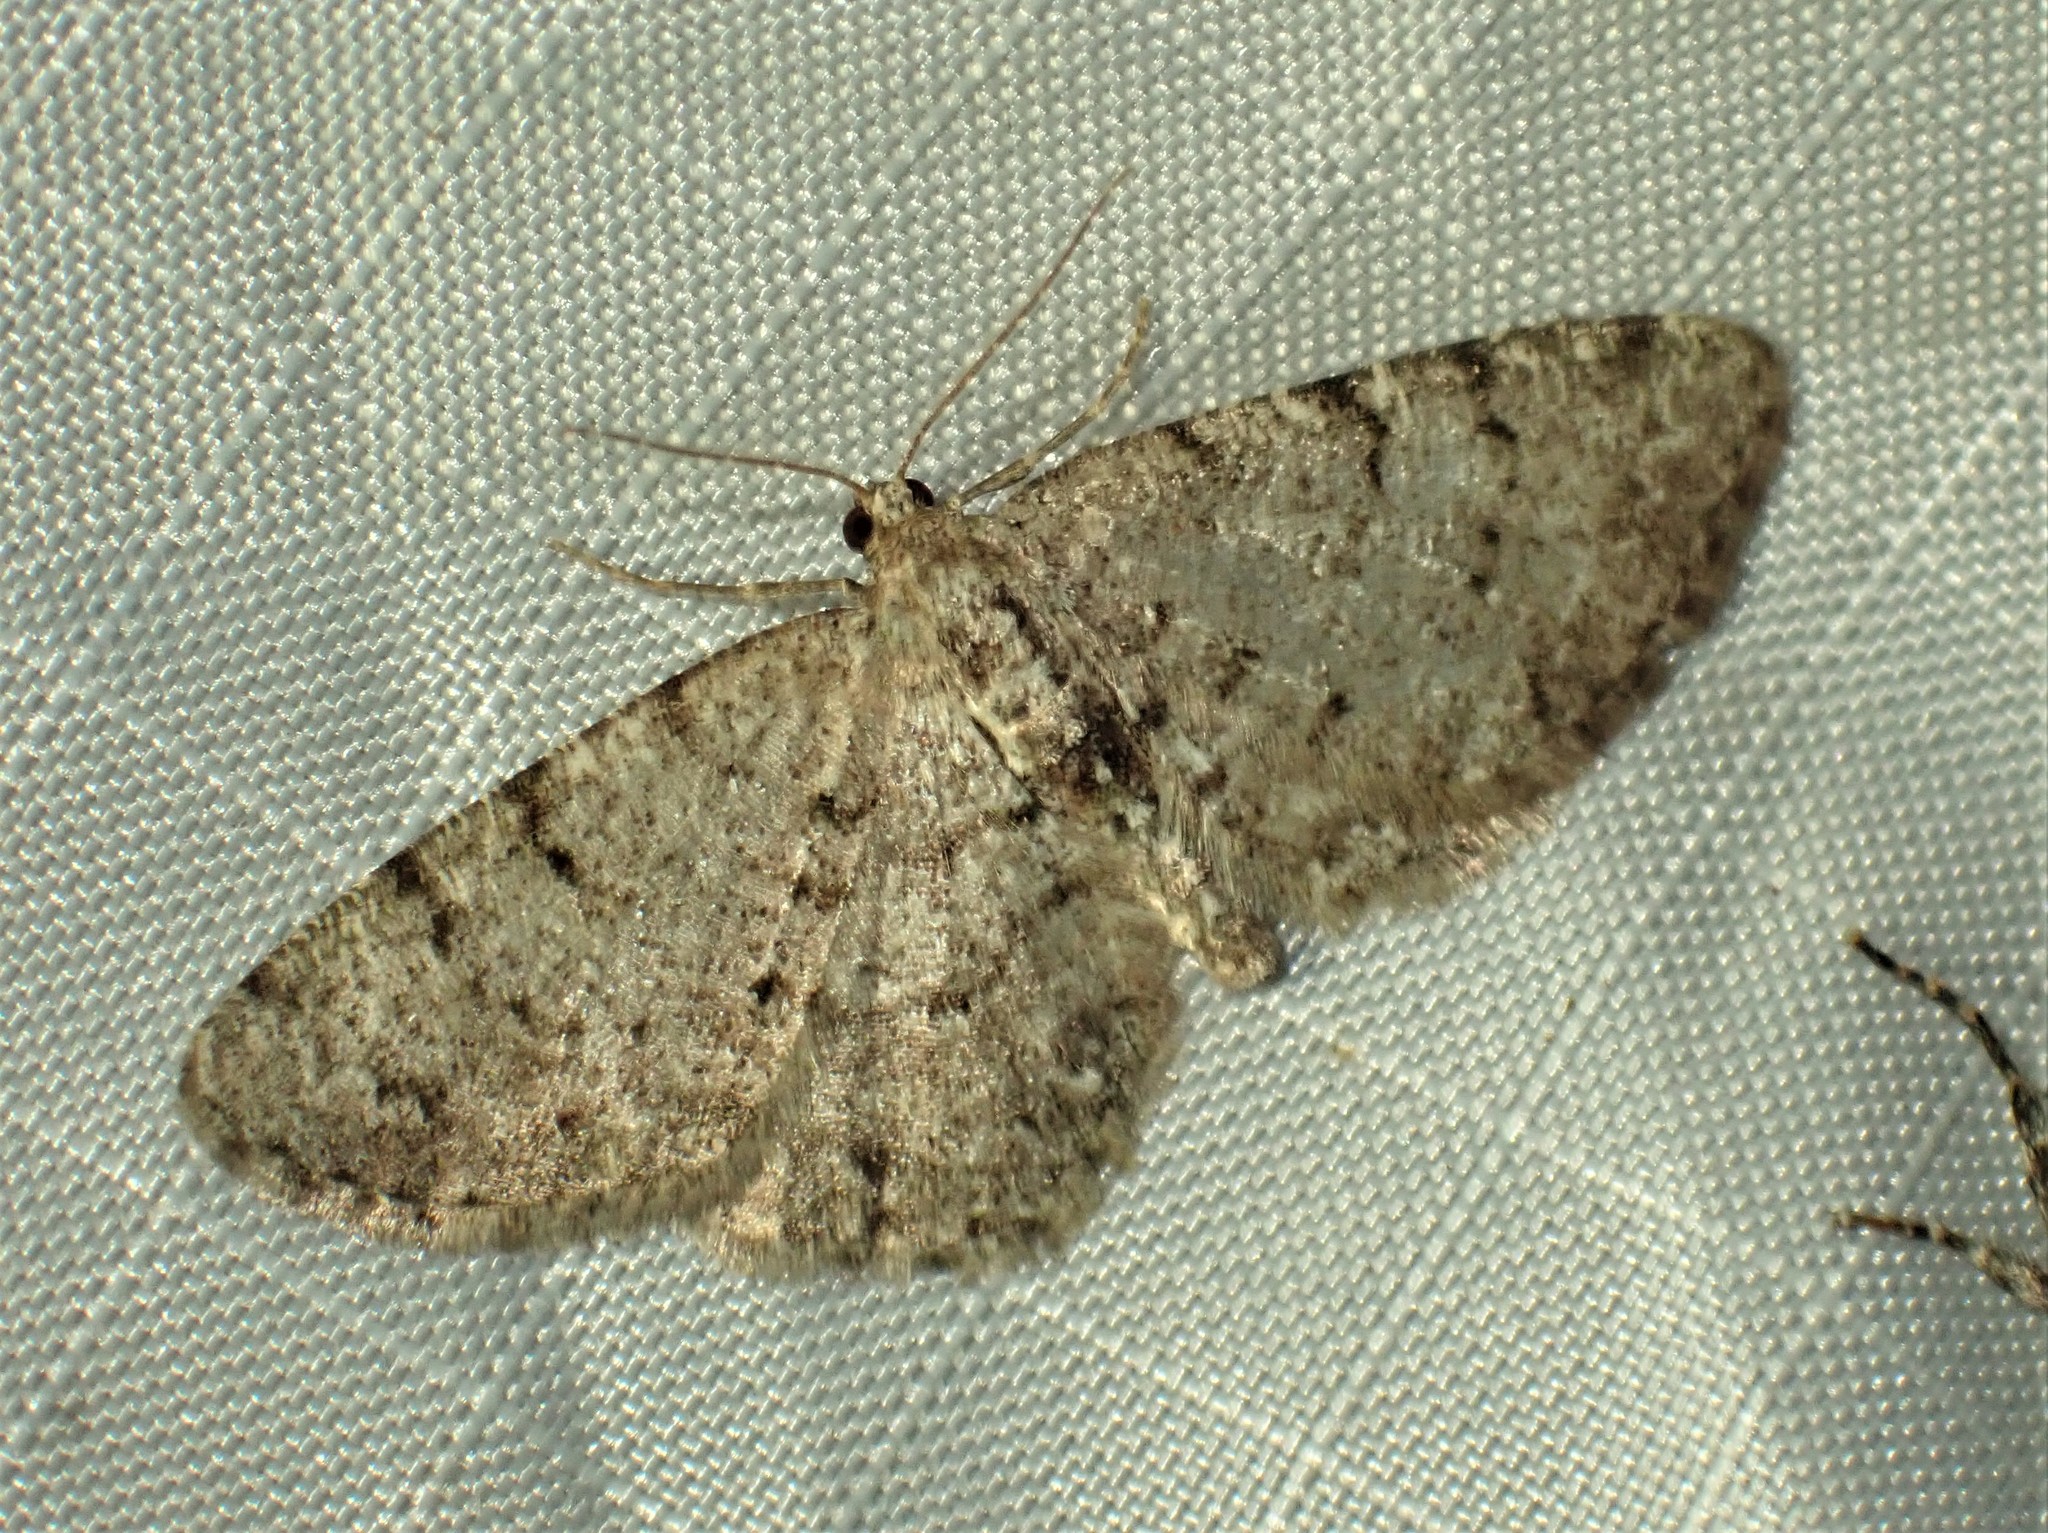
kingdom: Animalia
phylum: Arthropoda
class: Insecta
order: Lepidoptera
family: Geometridae
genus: Aethalura
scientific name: Aethalura intertexta
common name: Four-barred gray
